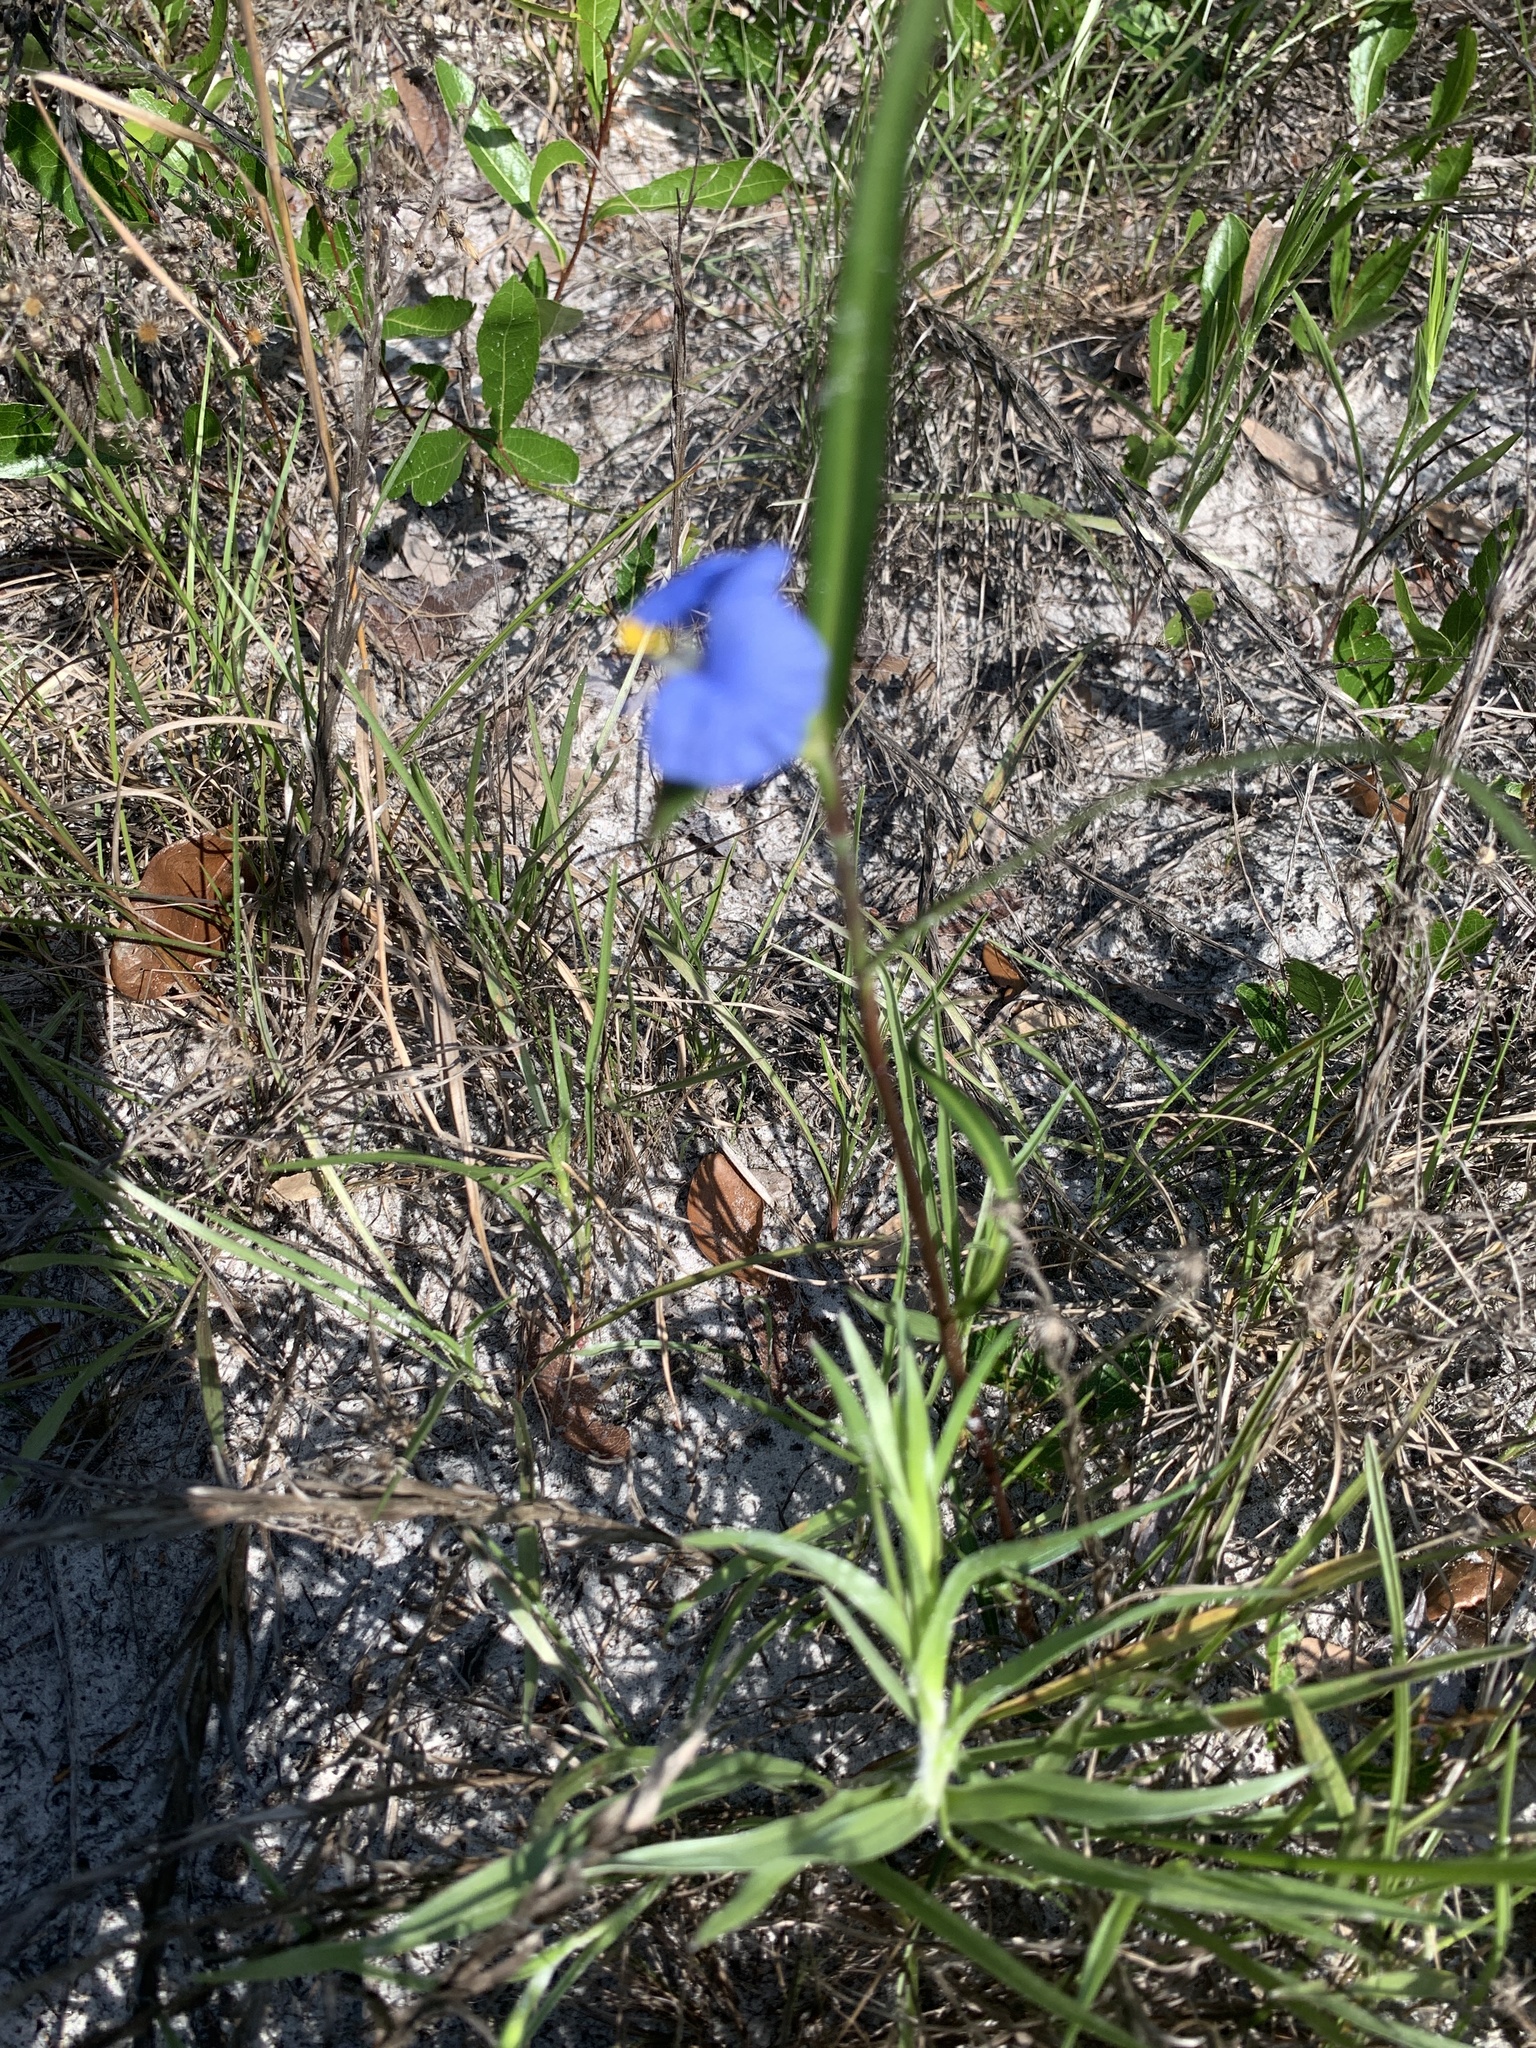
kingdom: Plantae
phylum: Tracheophyta
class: Liliopsida
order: Commelinales
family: Commelinaceae
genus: Commelina
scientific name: Commelina erecta
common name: Blousel blommetjie
